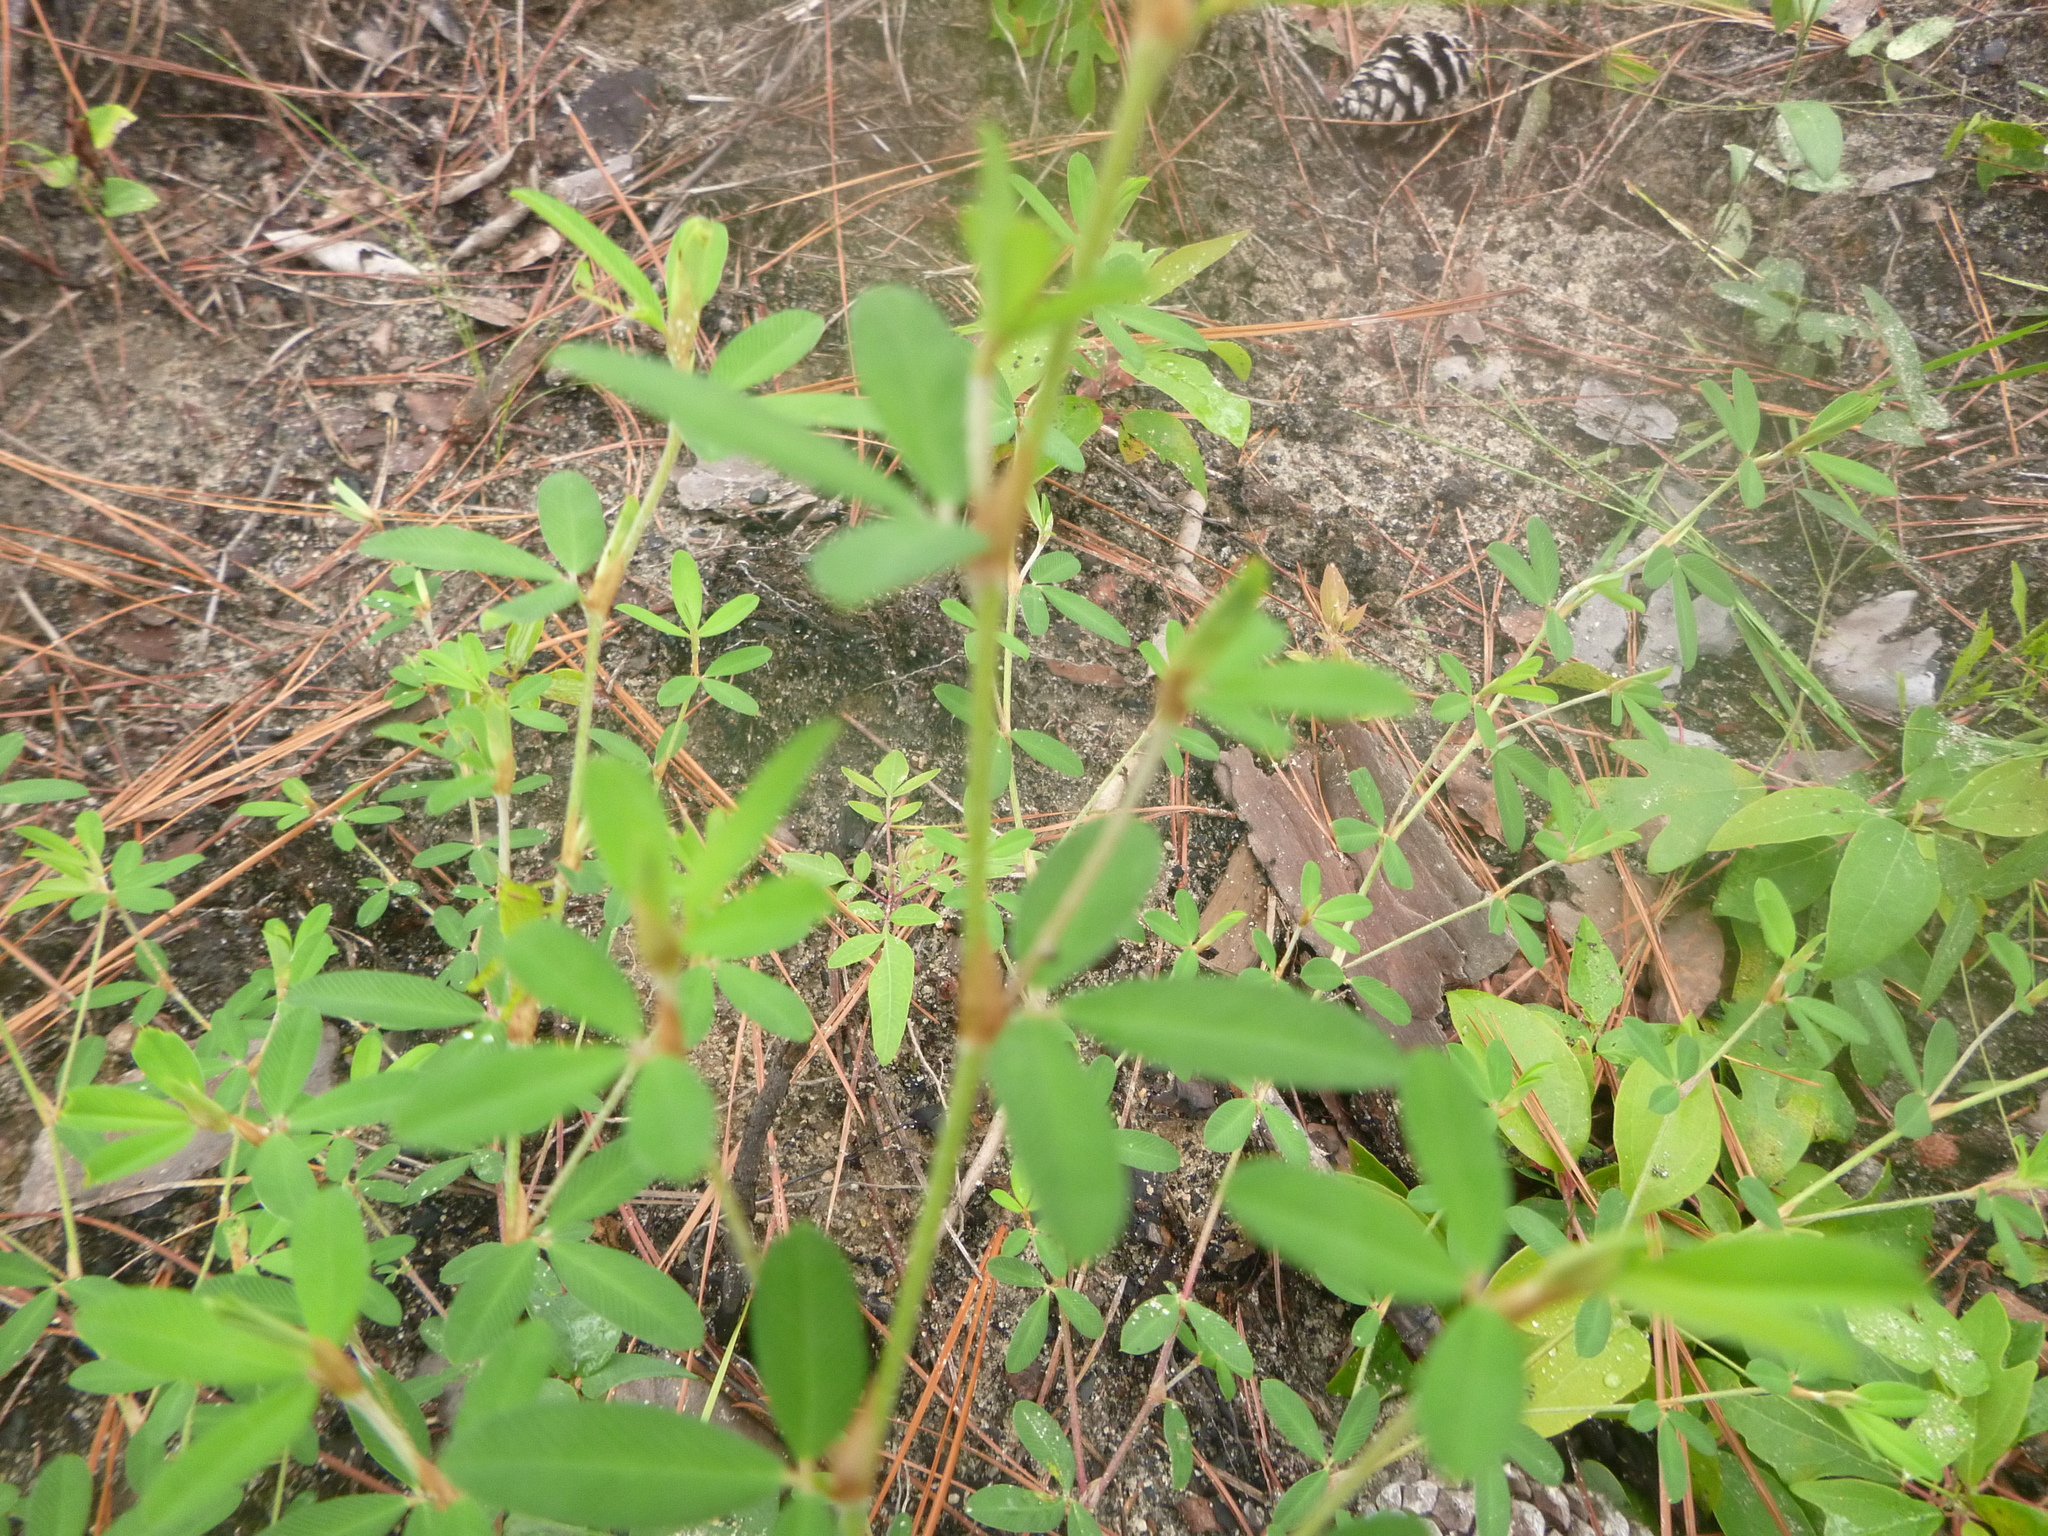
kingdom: Plantae
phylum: Tracheophyta
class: Magnoliopsida
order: Fabales
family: Fabaceae
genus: Kummerowia
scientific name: Kummerowia striata
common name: Japanese clover
